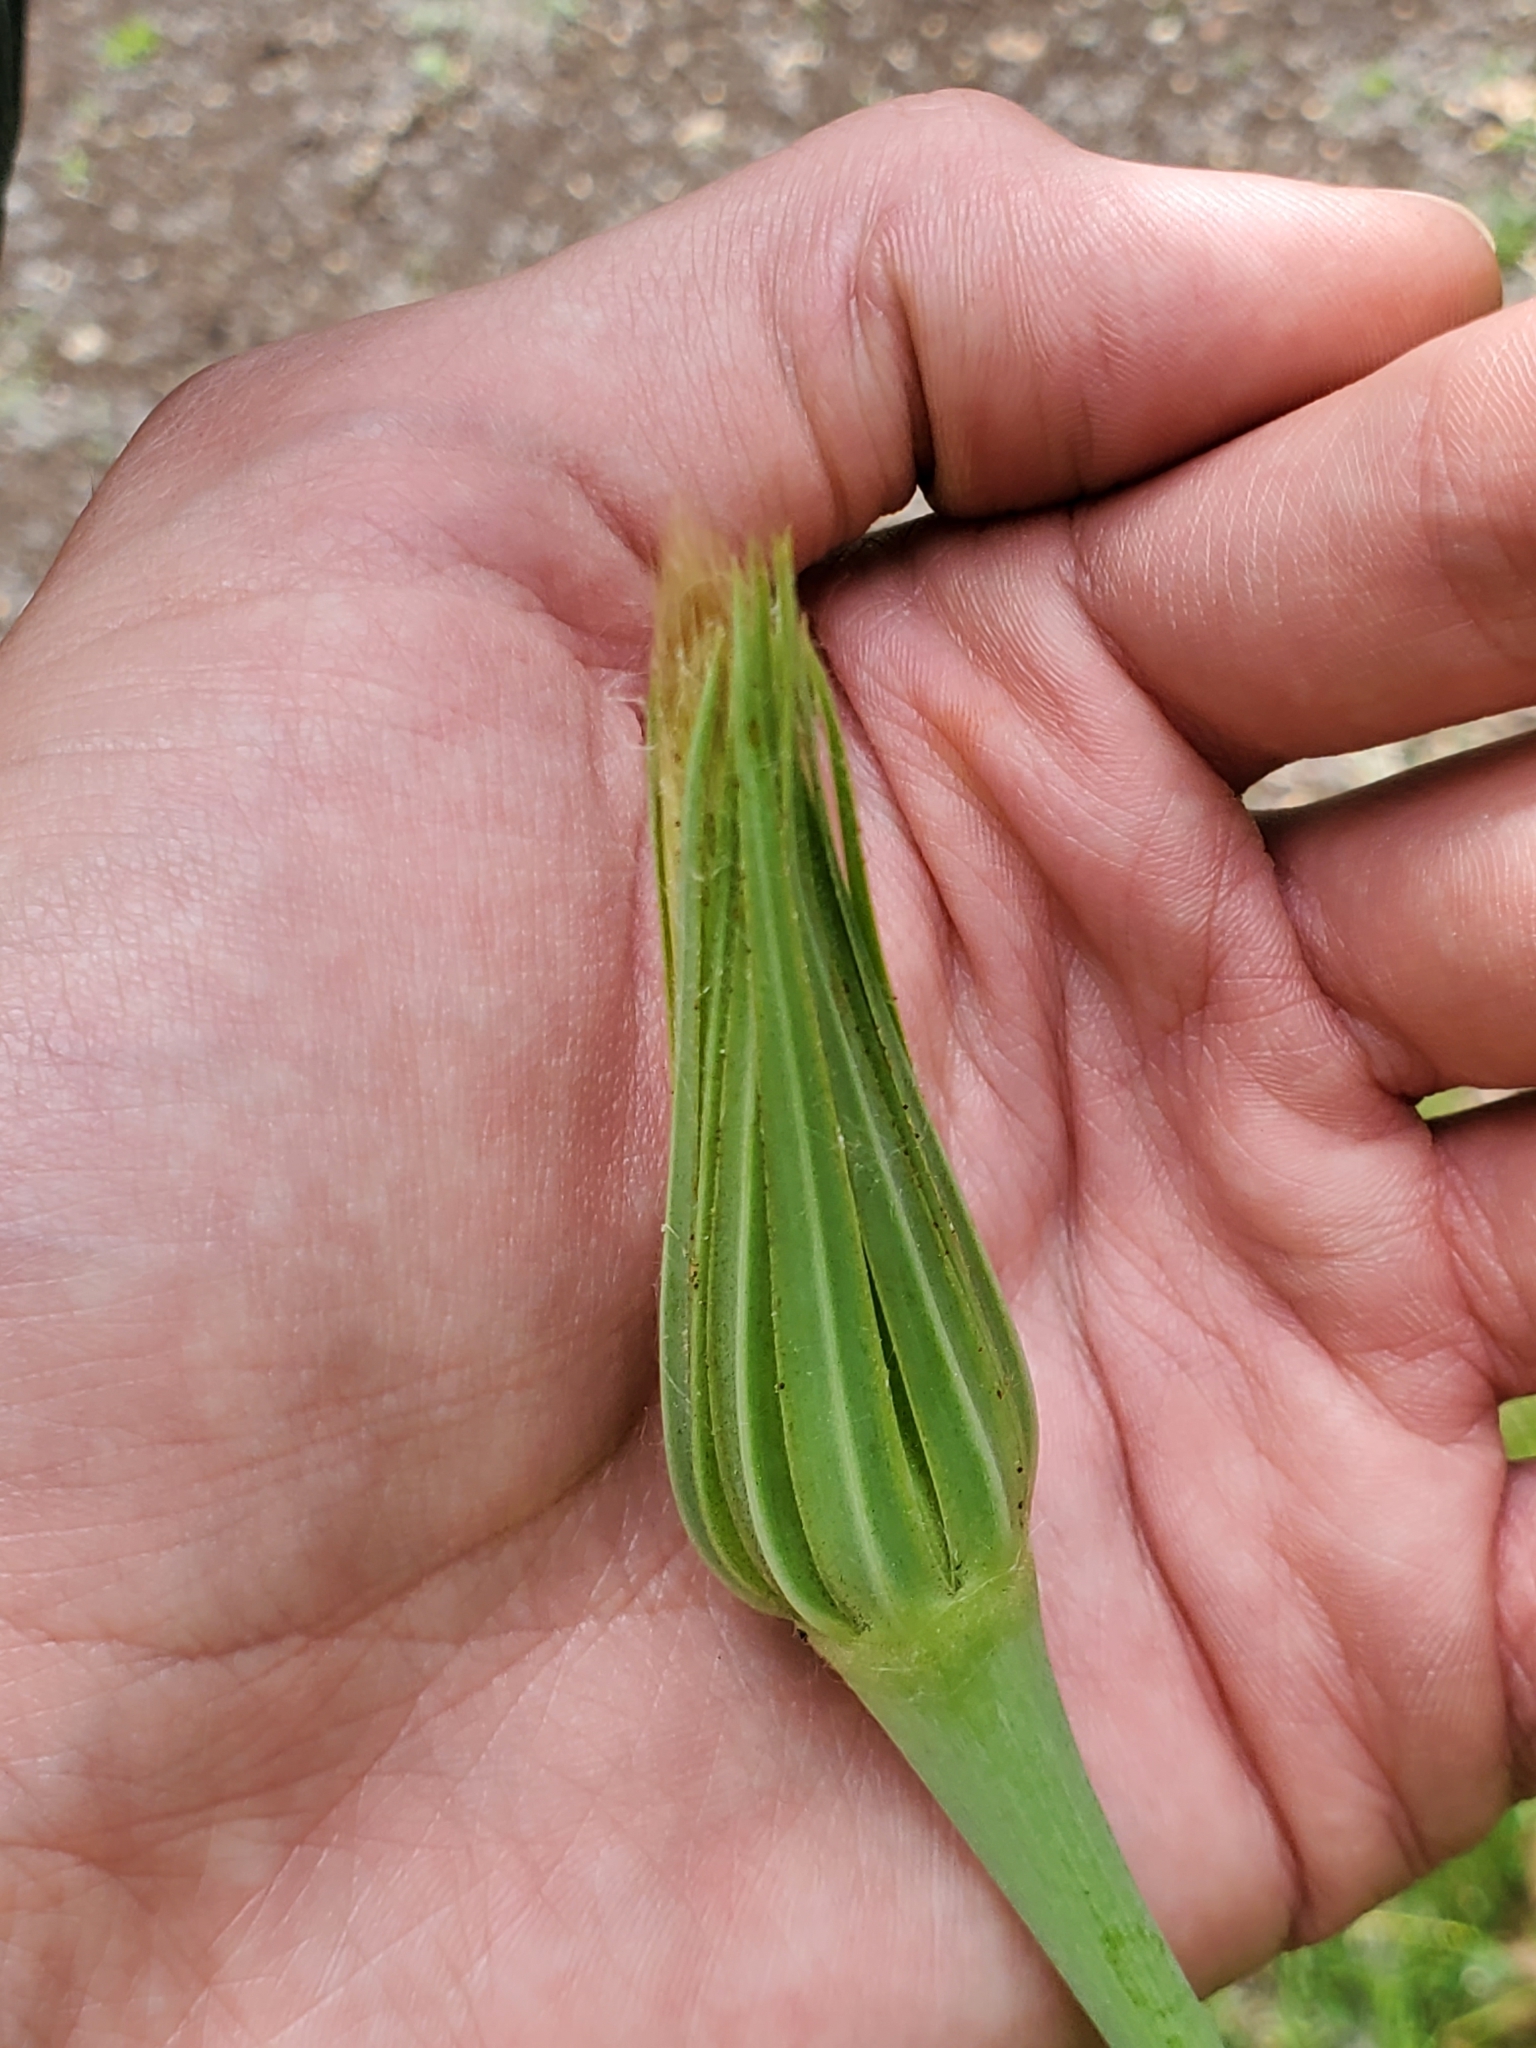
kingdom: Plantae
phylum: Tracheophyta
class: Magnoliopsida
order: Asterales
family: Asteraceae
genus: Tragopogon
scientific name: Tragopogon pratensis
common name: Goat's-beard
